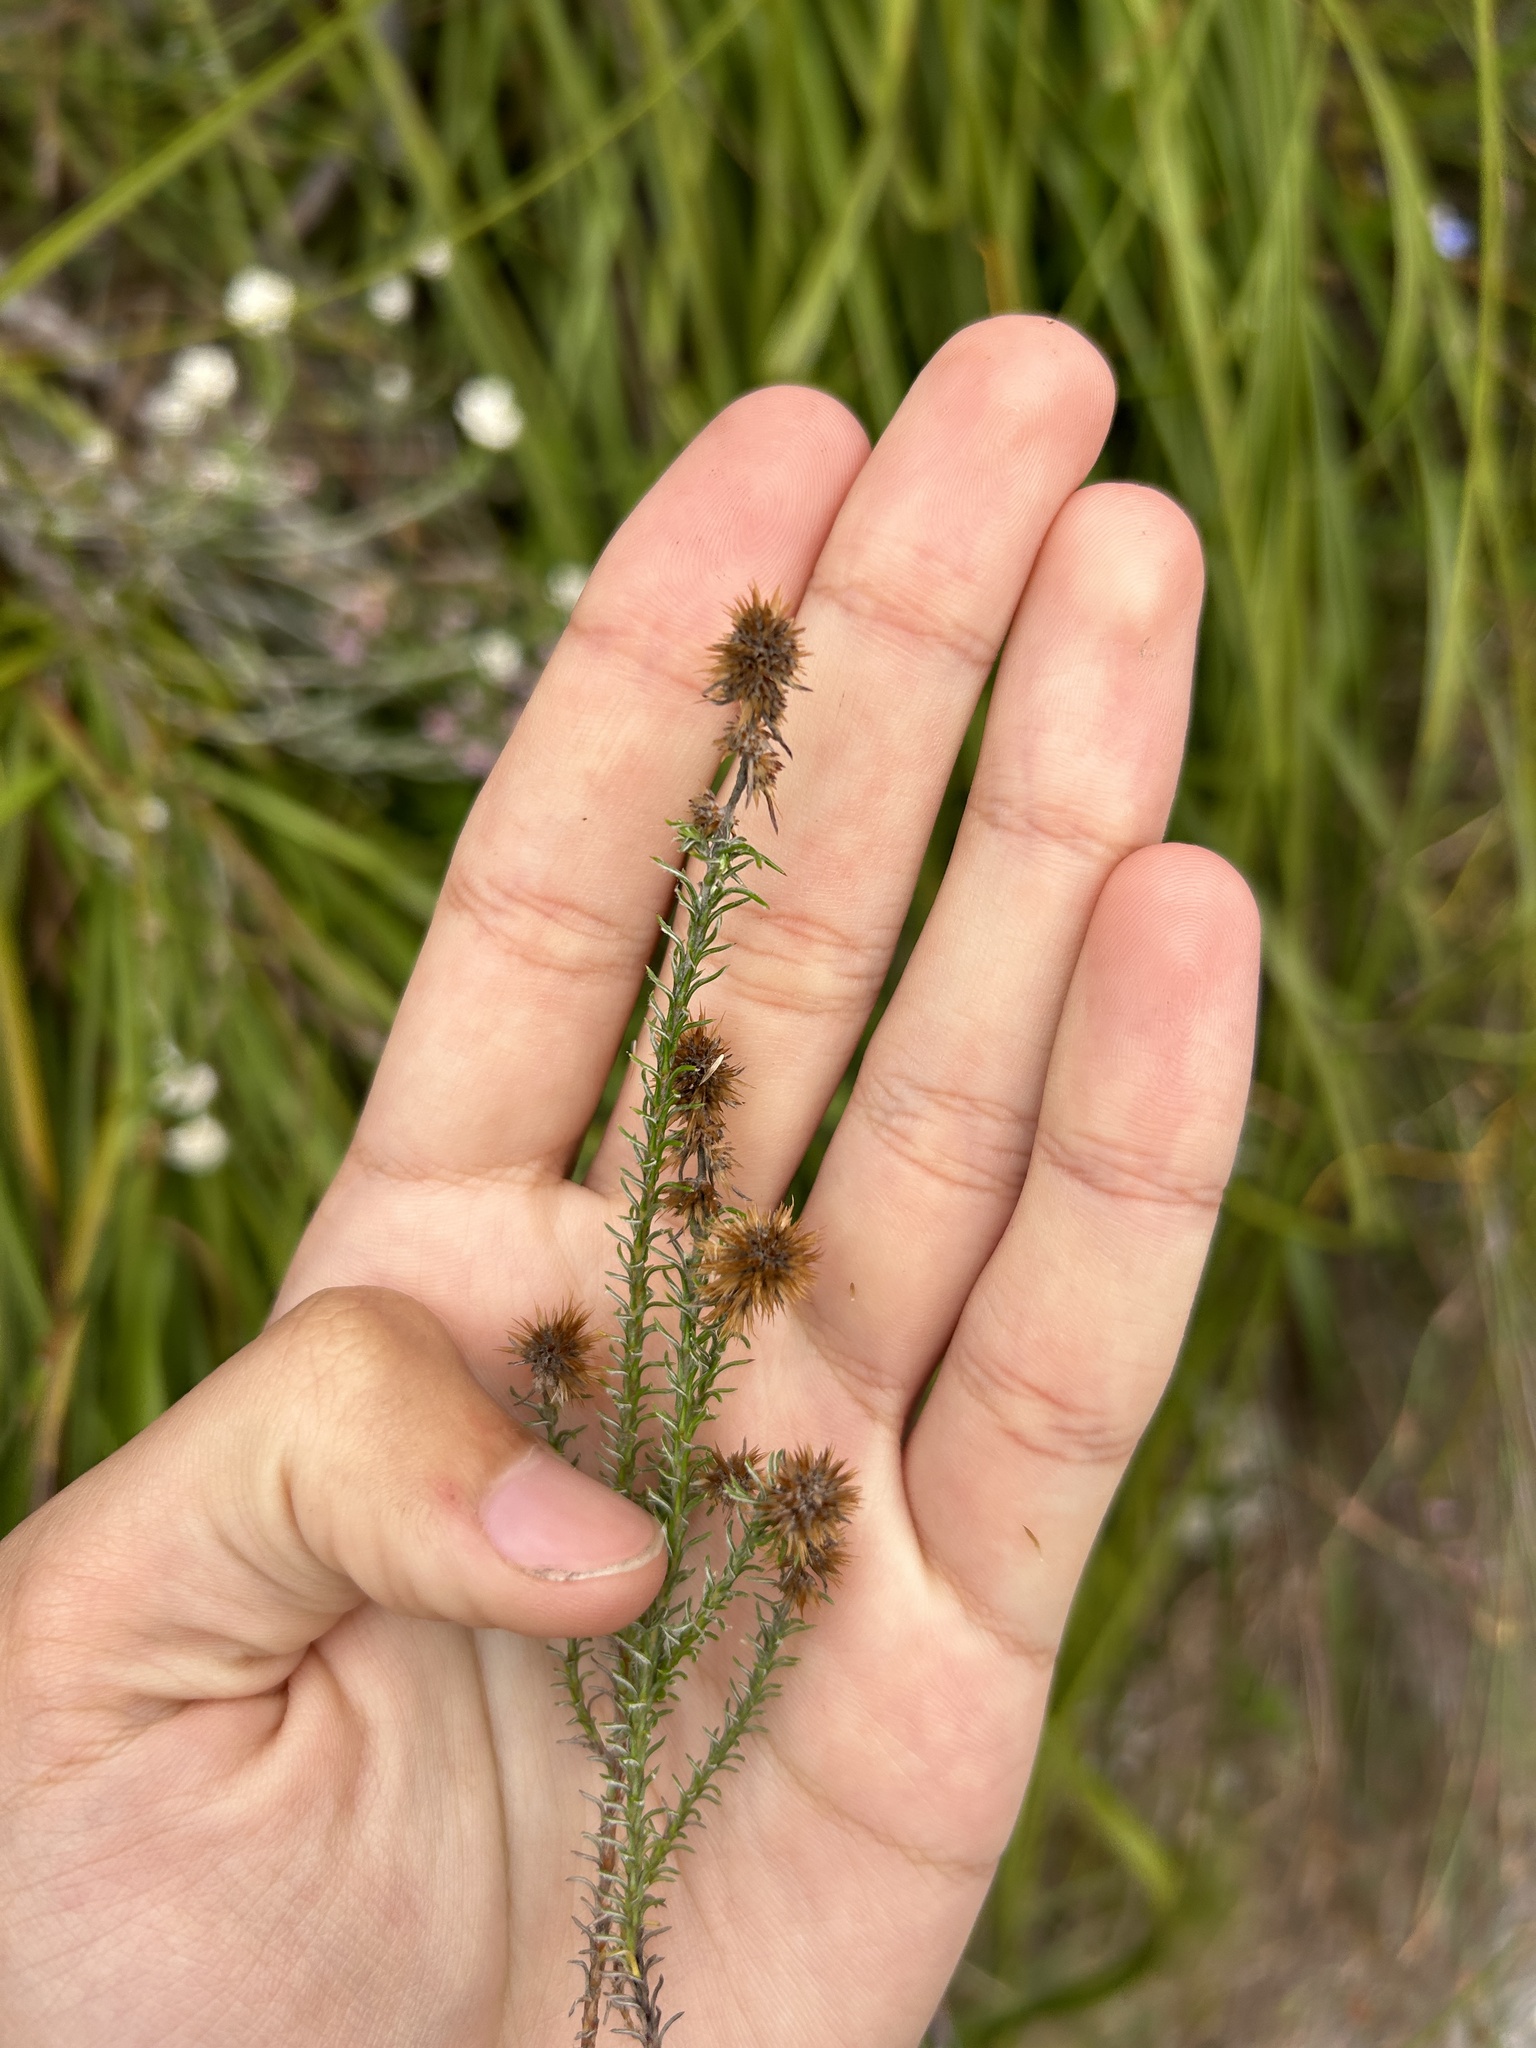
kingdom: Plantae
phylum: Tracheophyta
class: Magnoliopsida
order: Asterales
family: Asteraceae
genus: Seriphium
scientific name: Seriphium incanum
